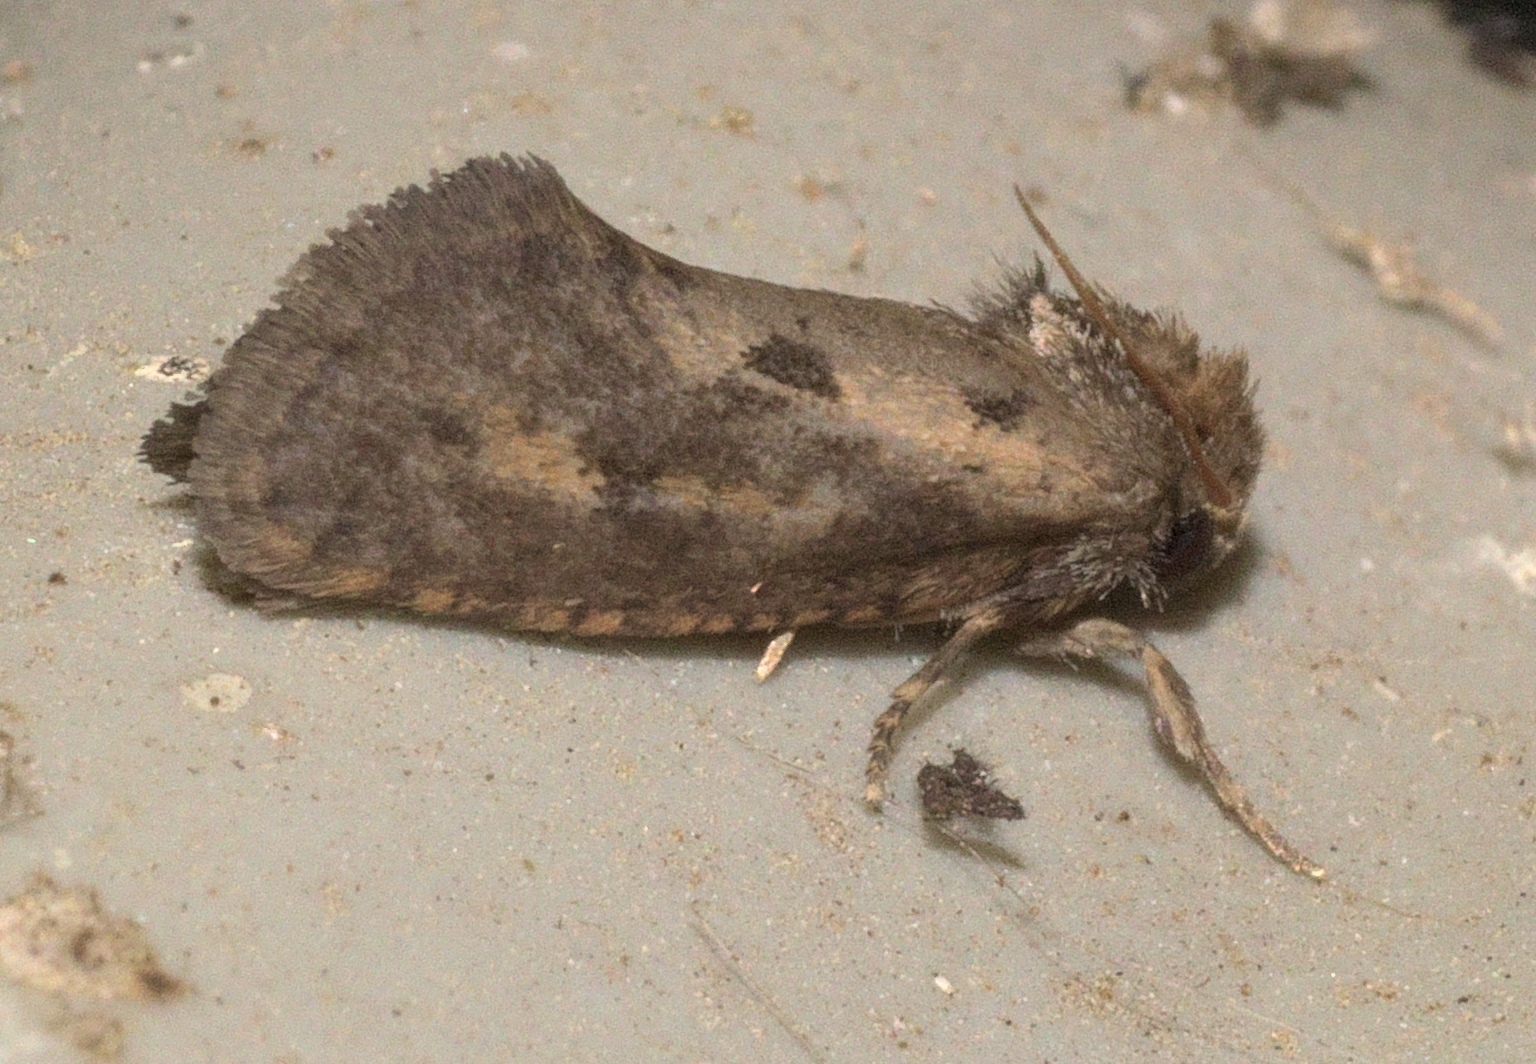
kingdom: Animalia
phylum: Arthropoda
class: Insecta
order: Lepidoptera
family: Tineidae
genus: Acrolophus
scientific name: Acrolophus popeanella
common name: Clemens' grass tubeworm moth
